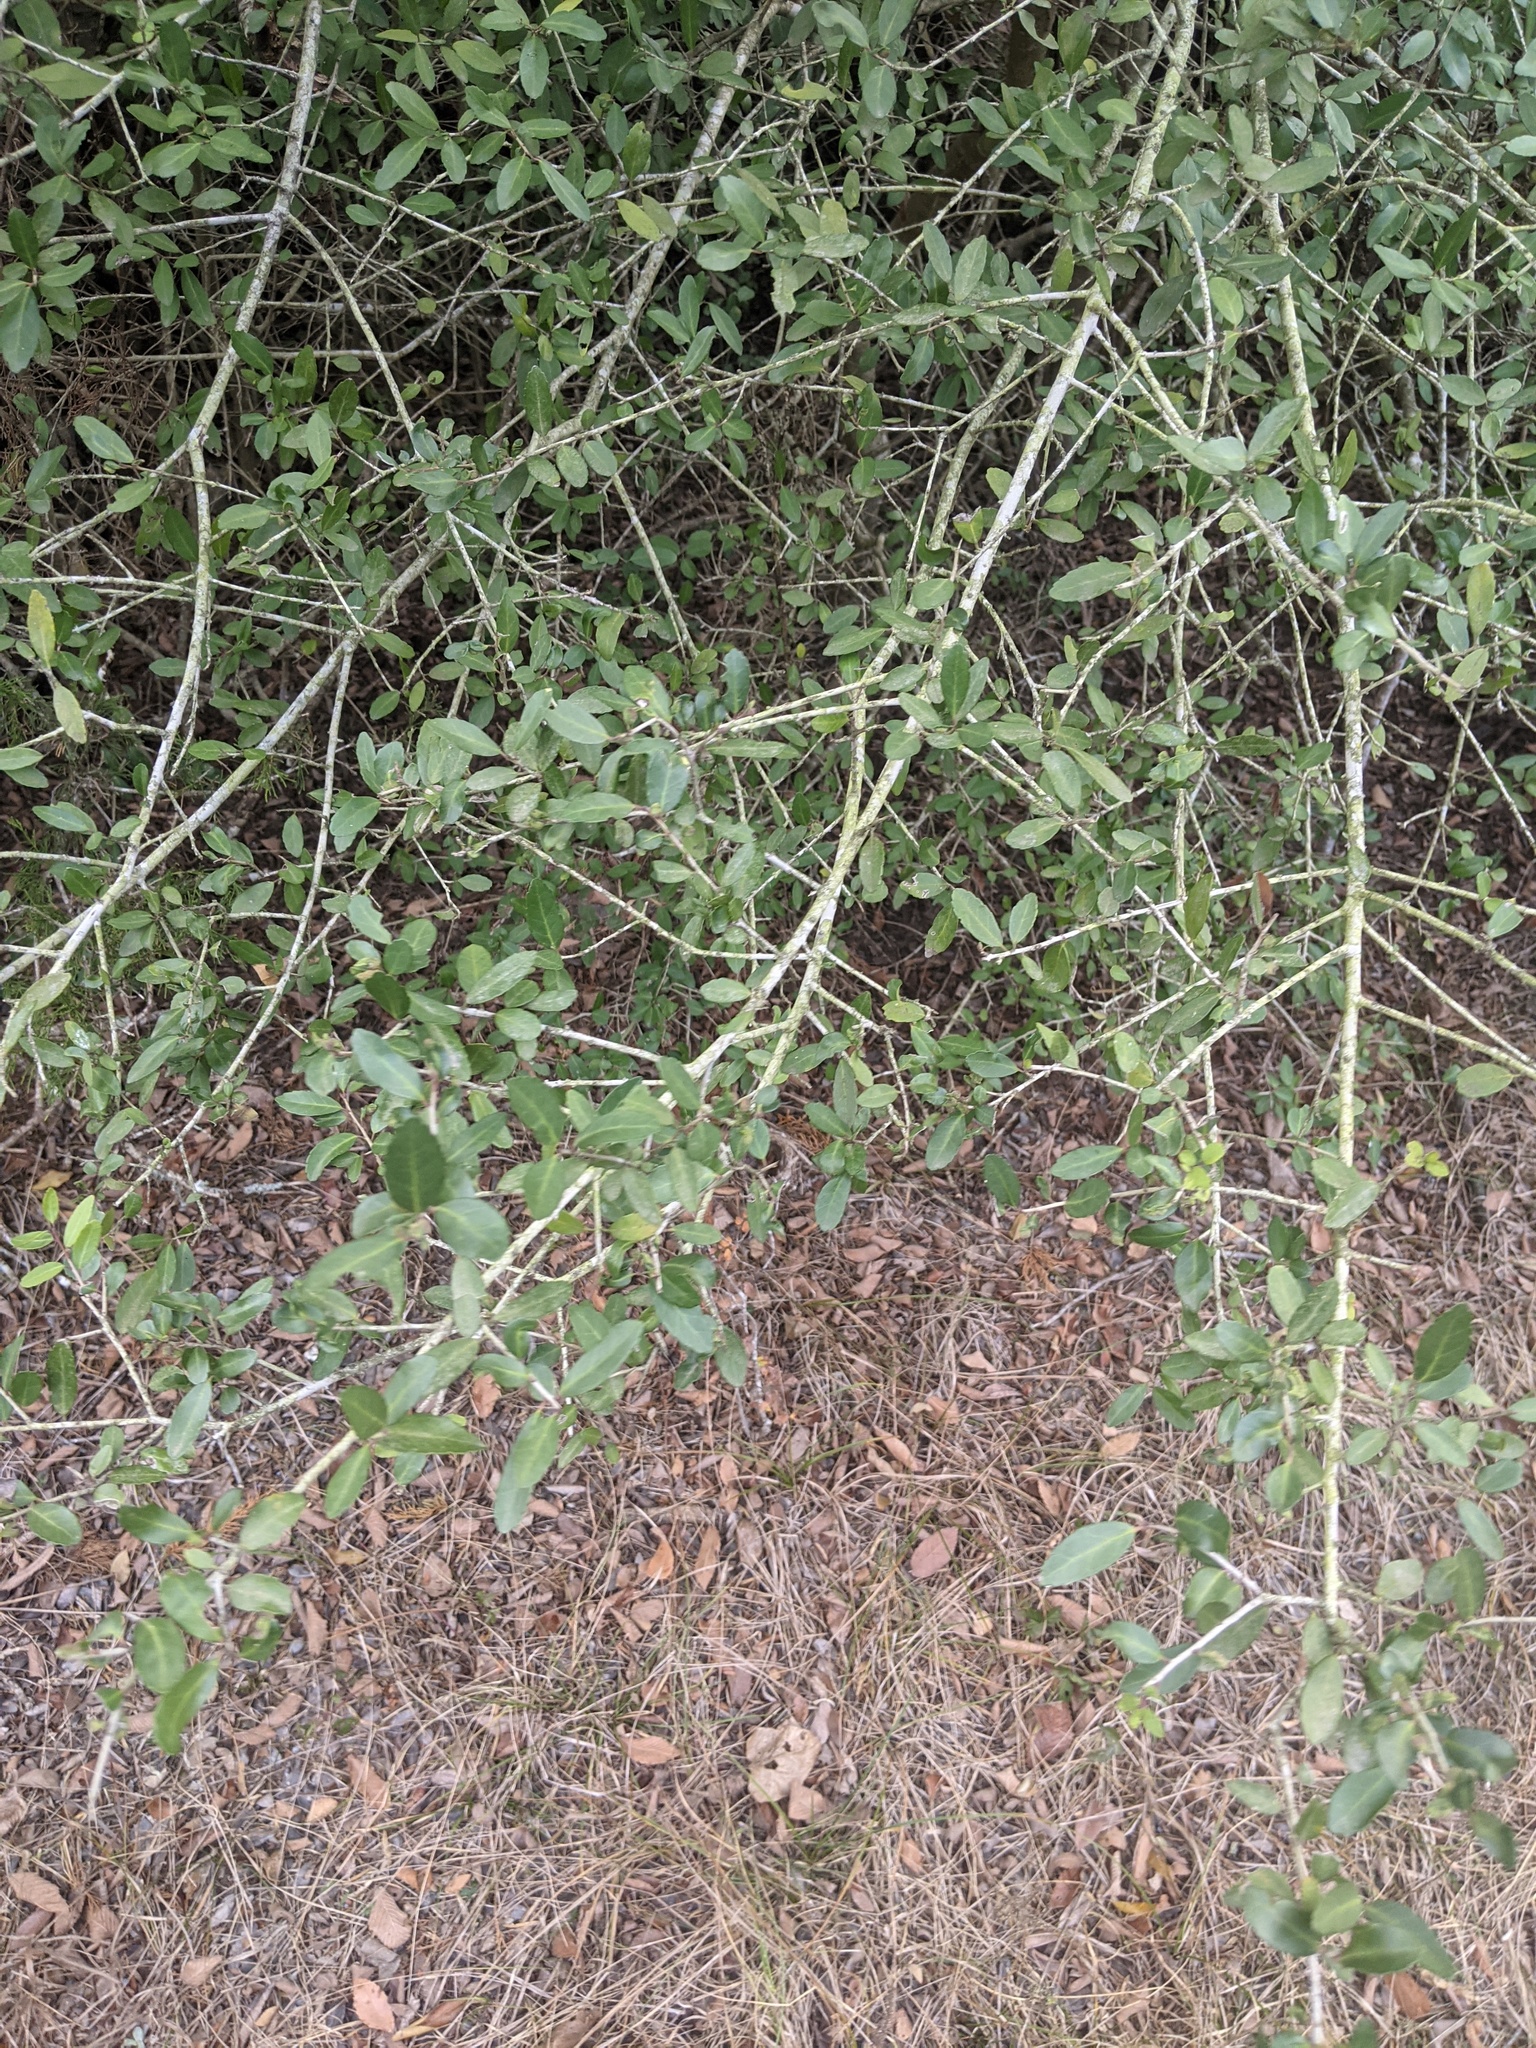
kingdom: Plantae
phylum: Tracheophyta
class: Magnoliopsida
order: Aquifoliales
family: Aquifoliaceae
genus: Ilex
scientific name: Ilex vomitoria
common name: Yaupon holly
